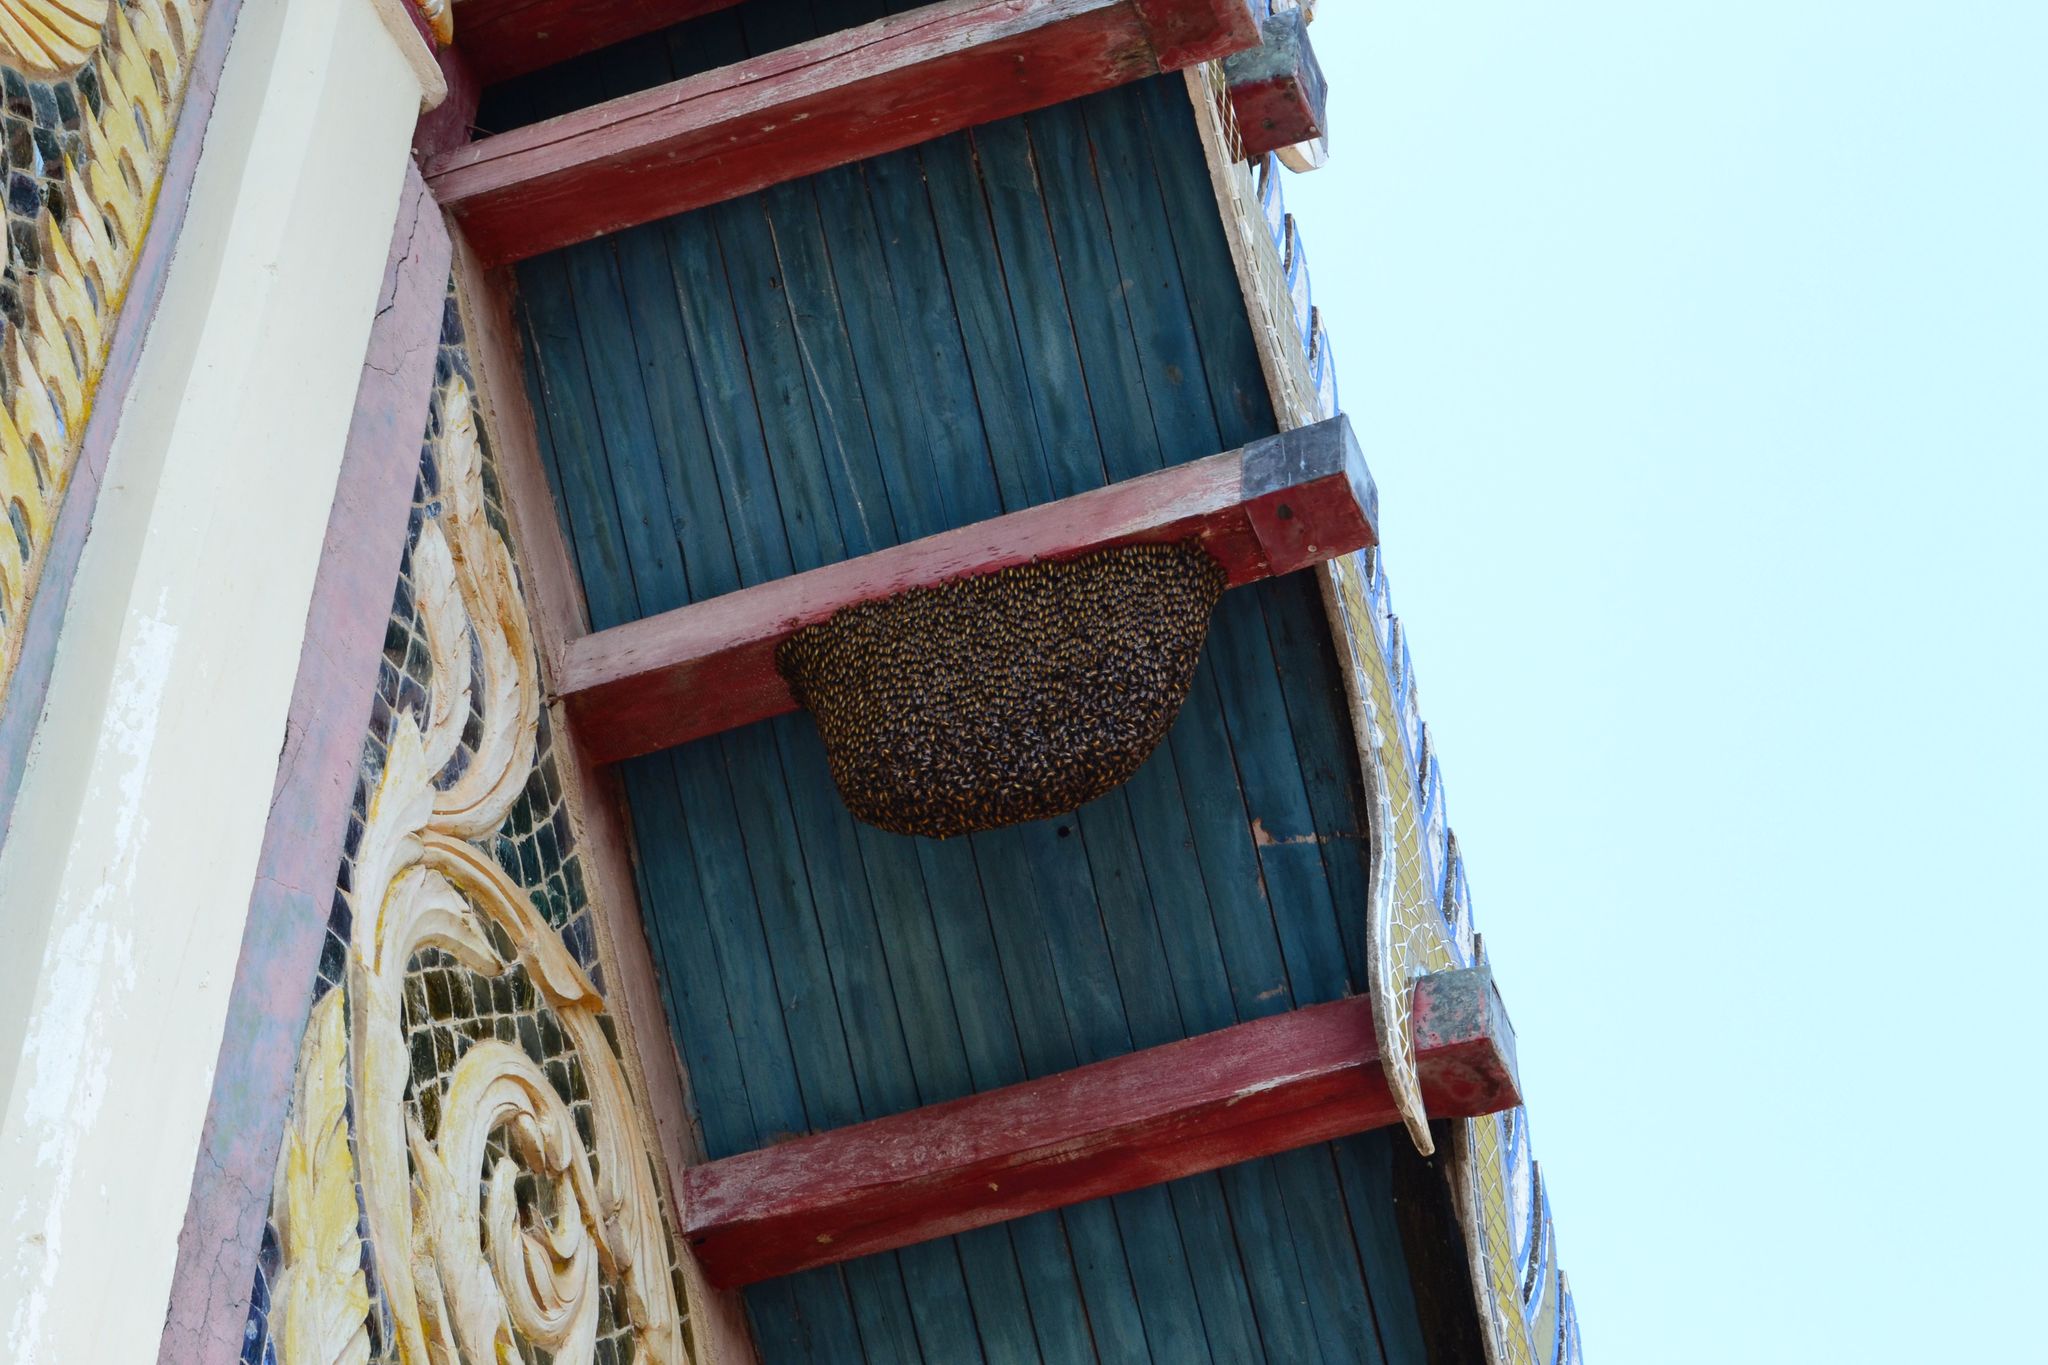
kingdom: Animalia
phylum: Arthropoda
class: Insecta
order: Hymenoptera
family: Apidae
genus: Apis
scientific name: Apis dorsata
